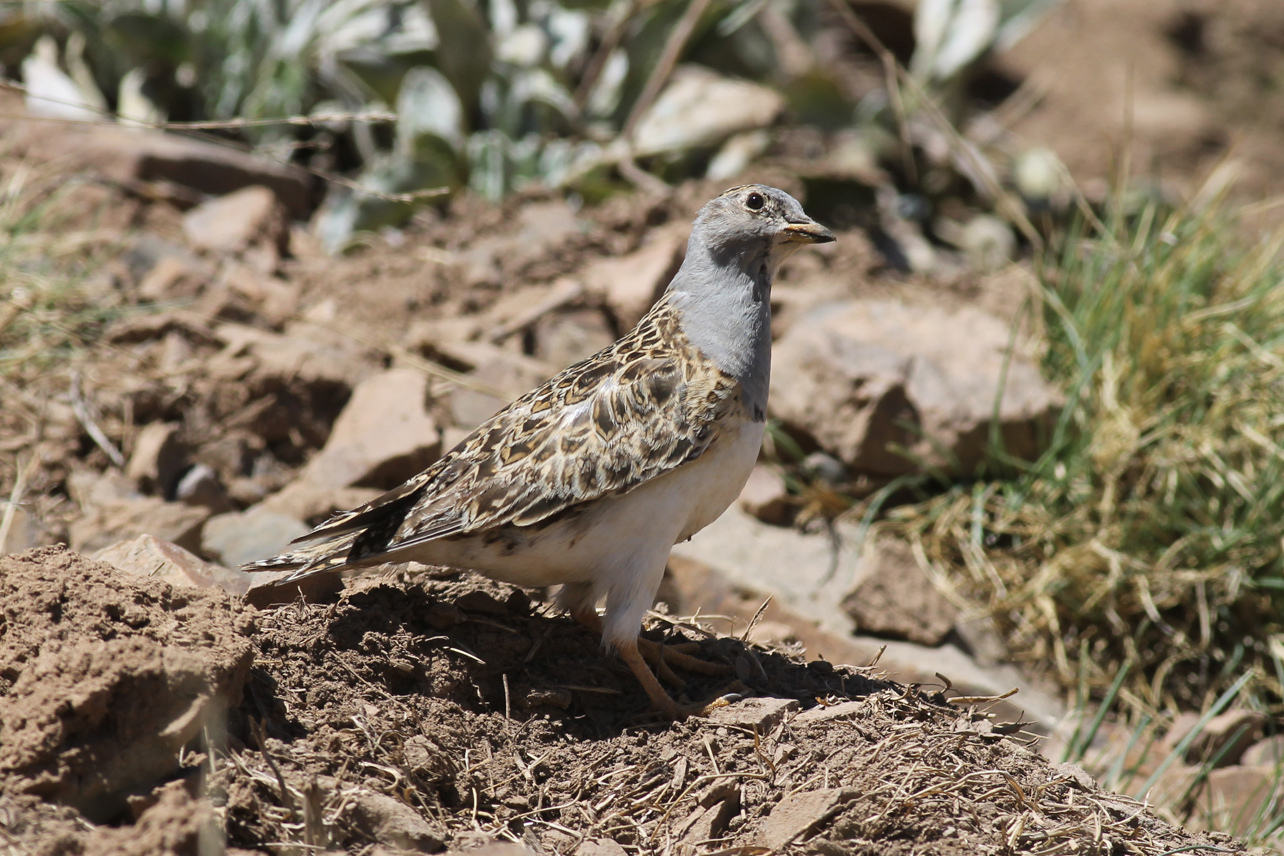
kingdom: Animalia
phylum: Chordata
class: Aves
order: Charadriiformes
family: Thinocoridae
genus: Thinocorus
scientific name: Thinocorus orbignyianus
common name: Grey-breasted seedsnipe
